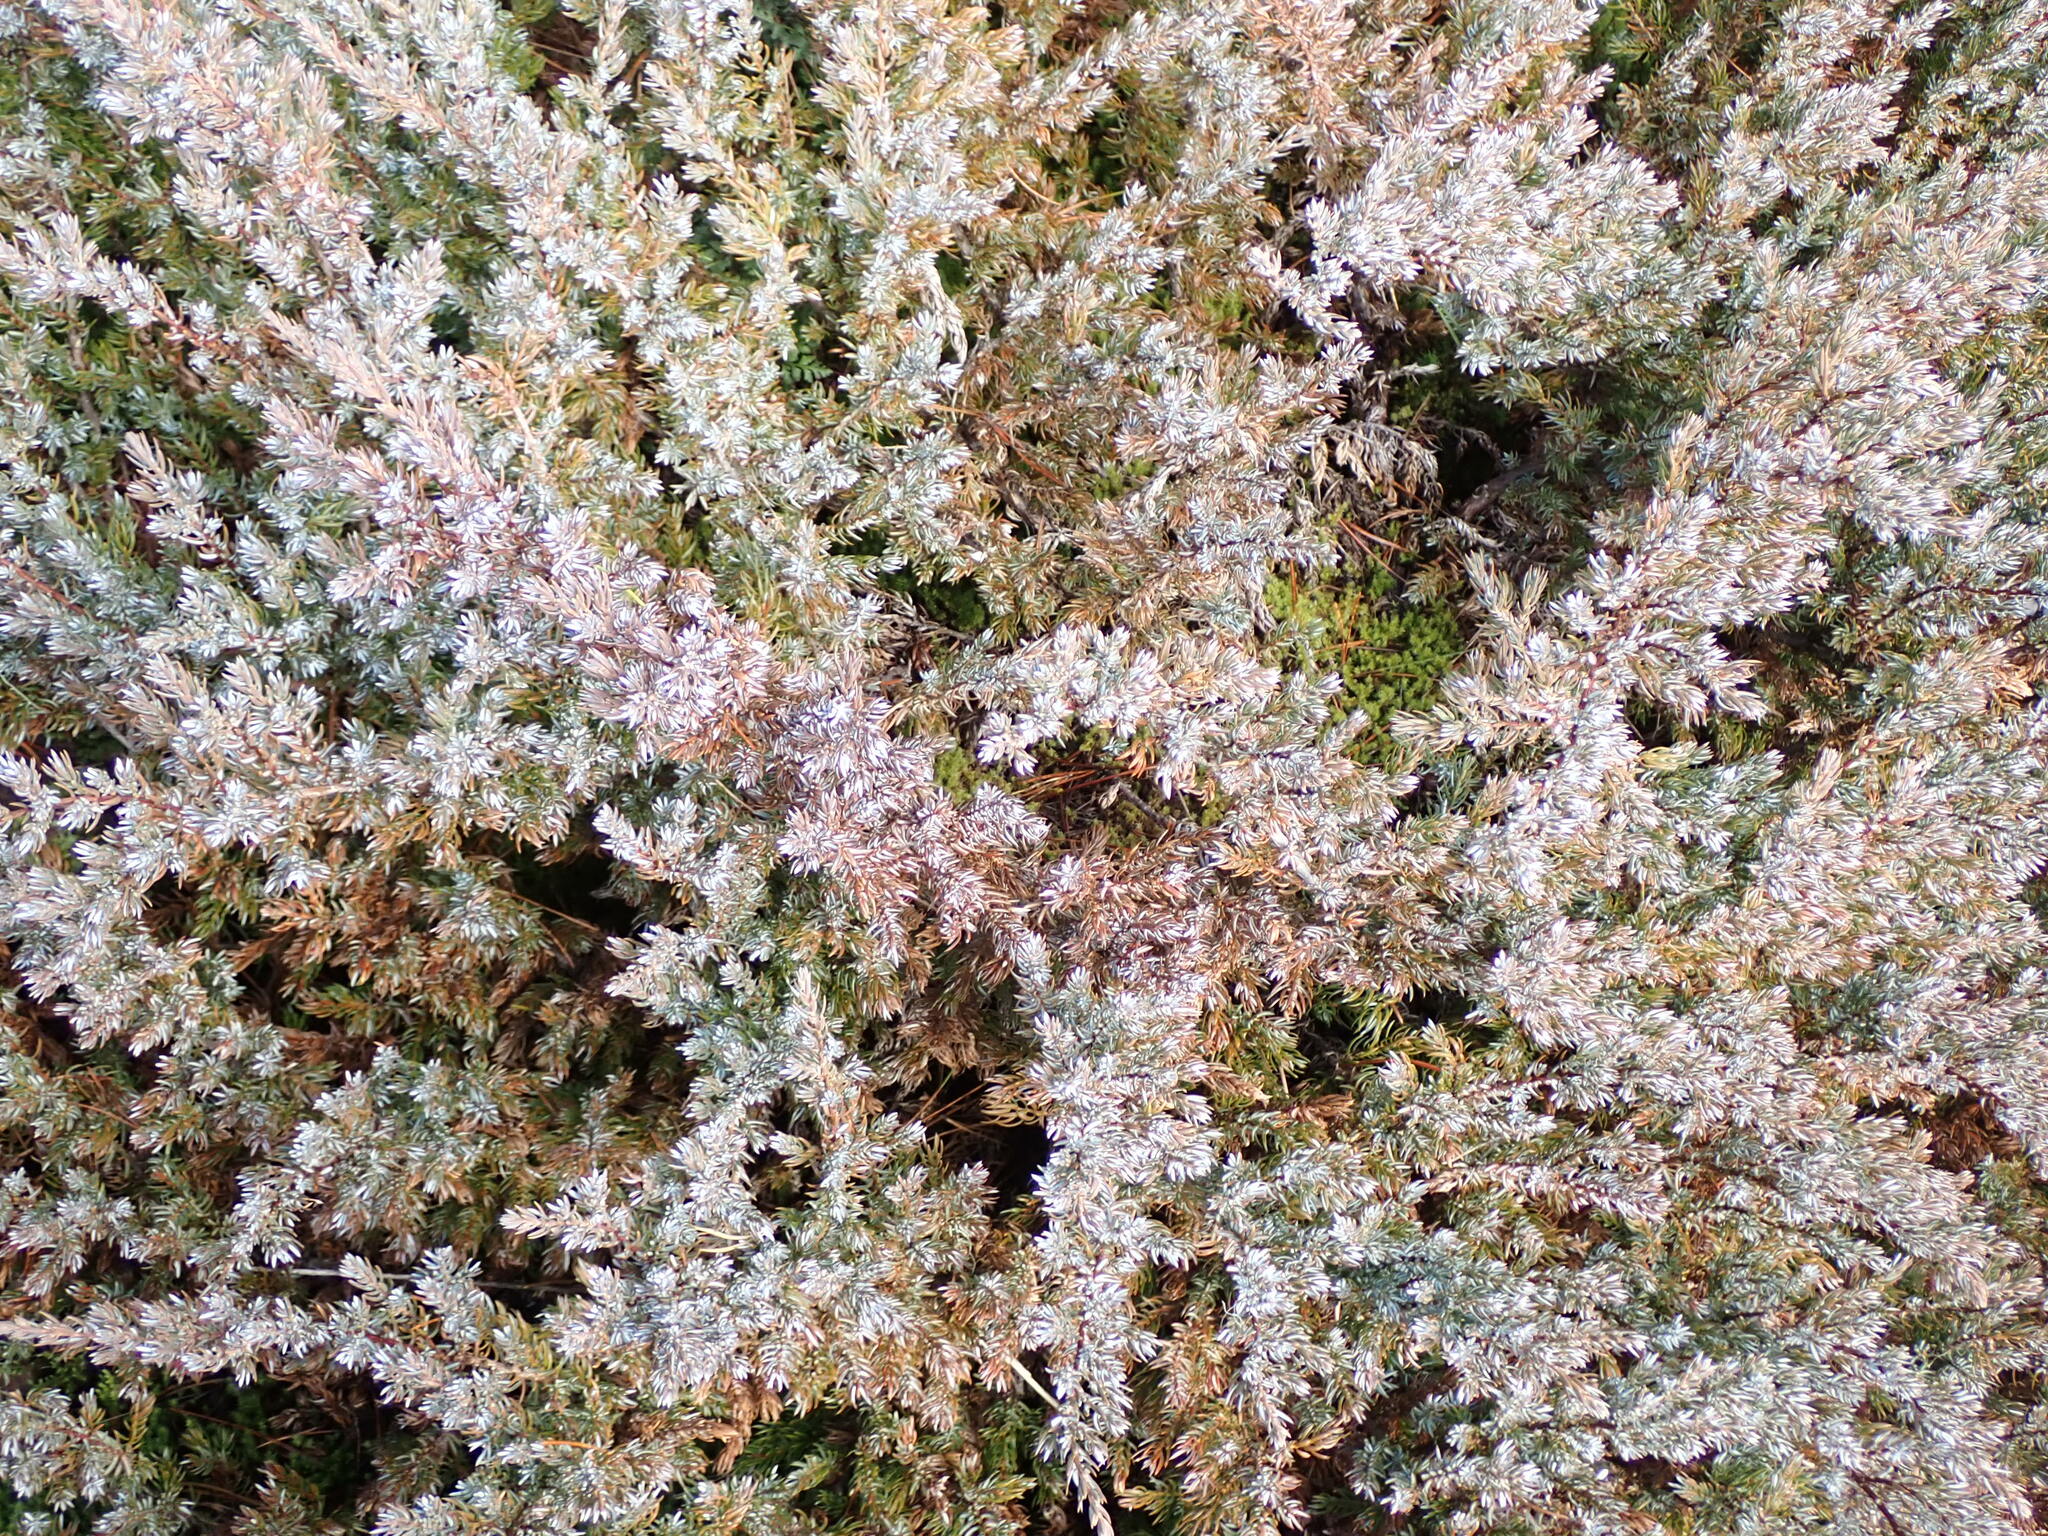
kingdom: Plantae
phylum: Tracheophyta
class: Pinopsida
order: Pinales
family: Cupressaceae
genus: Juniperus
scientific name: Juniperus communis
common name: Common juniper
